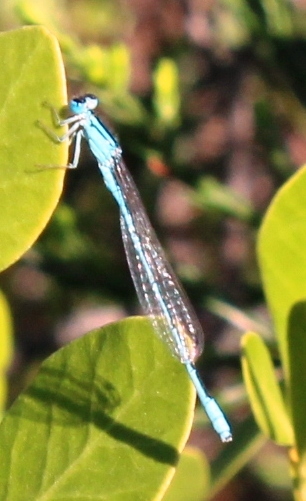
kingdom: Animalia
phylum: Arthropoda
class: Insecta
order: Odonata
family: Coenagrionidae
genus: Africallagma
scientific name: Africallagma glaucum
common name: Swamp bluet
